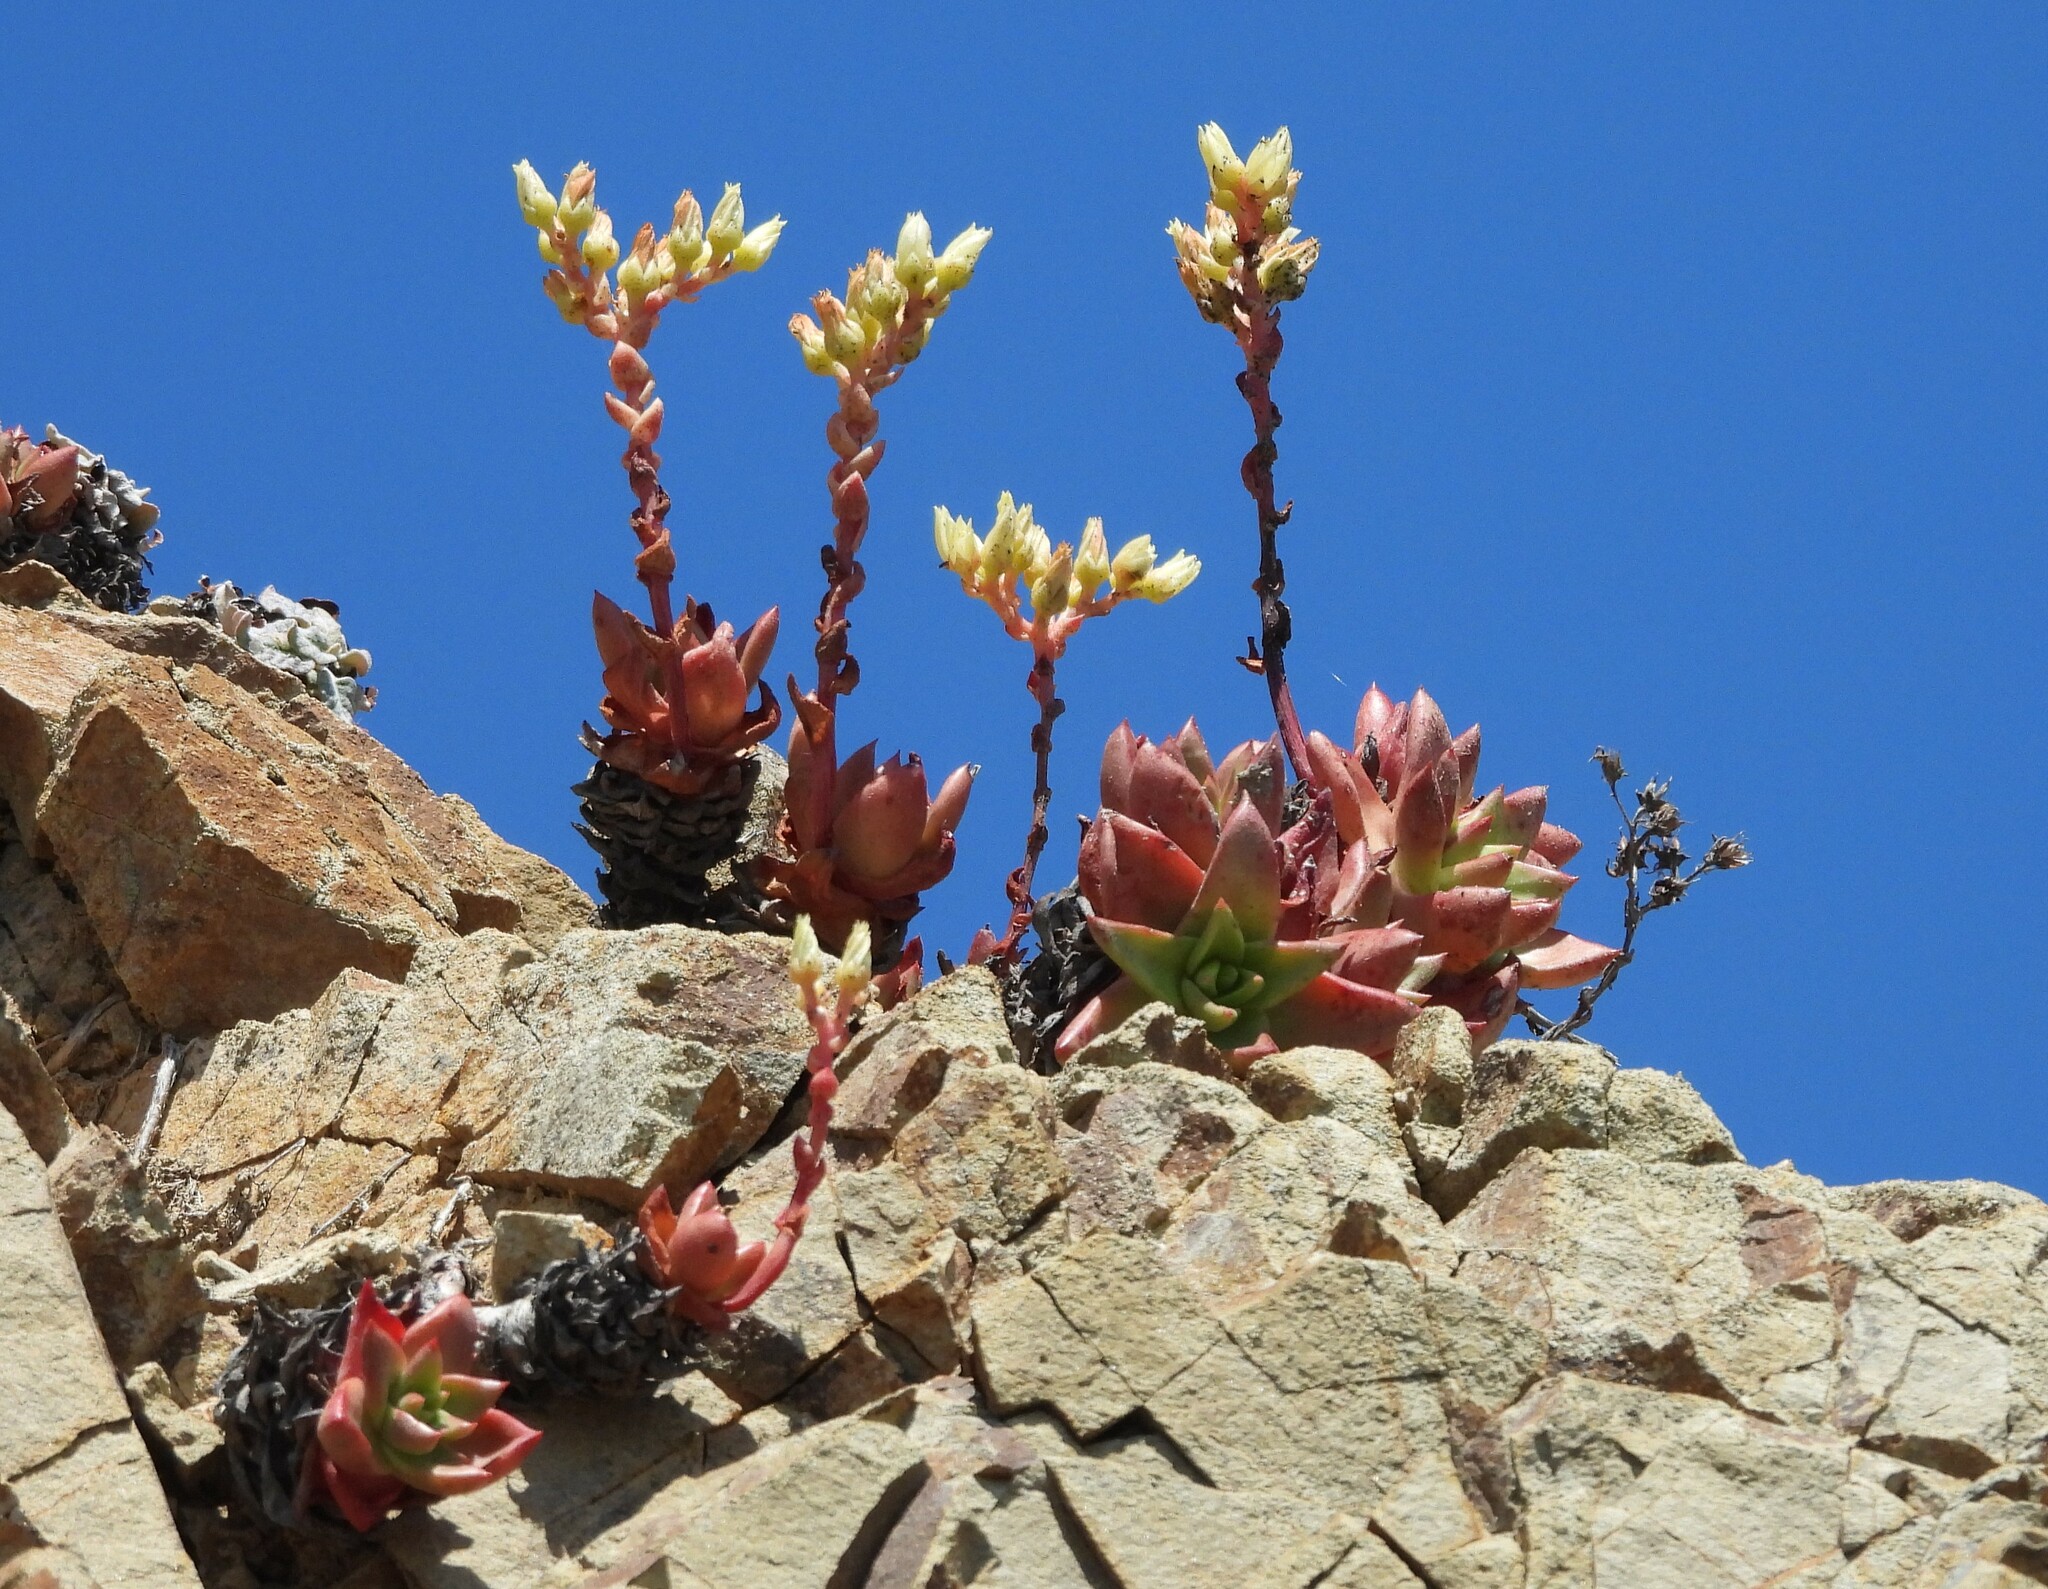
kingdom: Plantae
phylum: Tracheophyta
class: Magnoliopsida
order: Saxifragales
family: Crassulaceae
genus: Dudleya
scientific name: Dudleya farinosa
